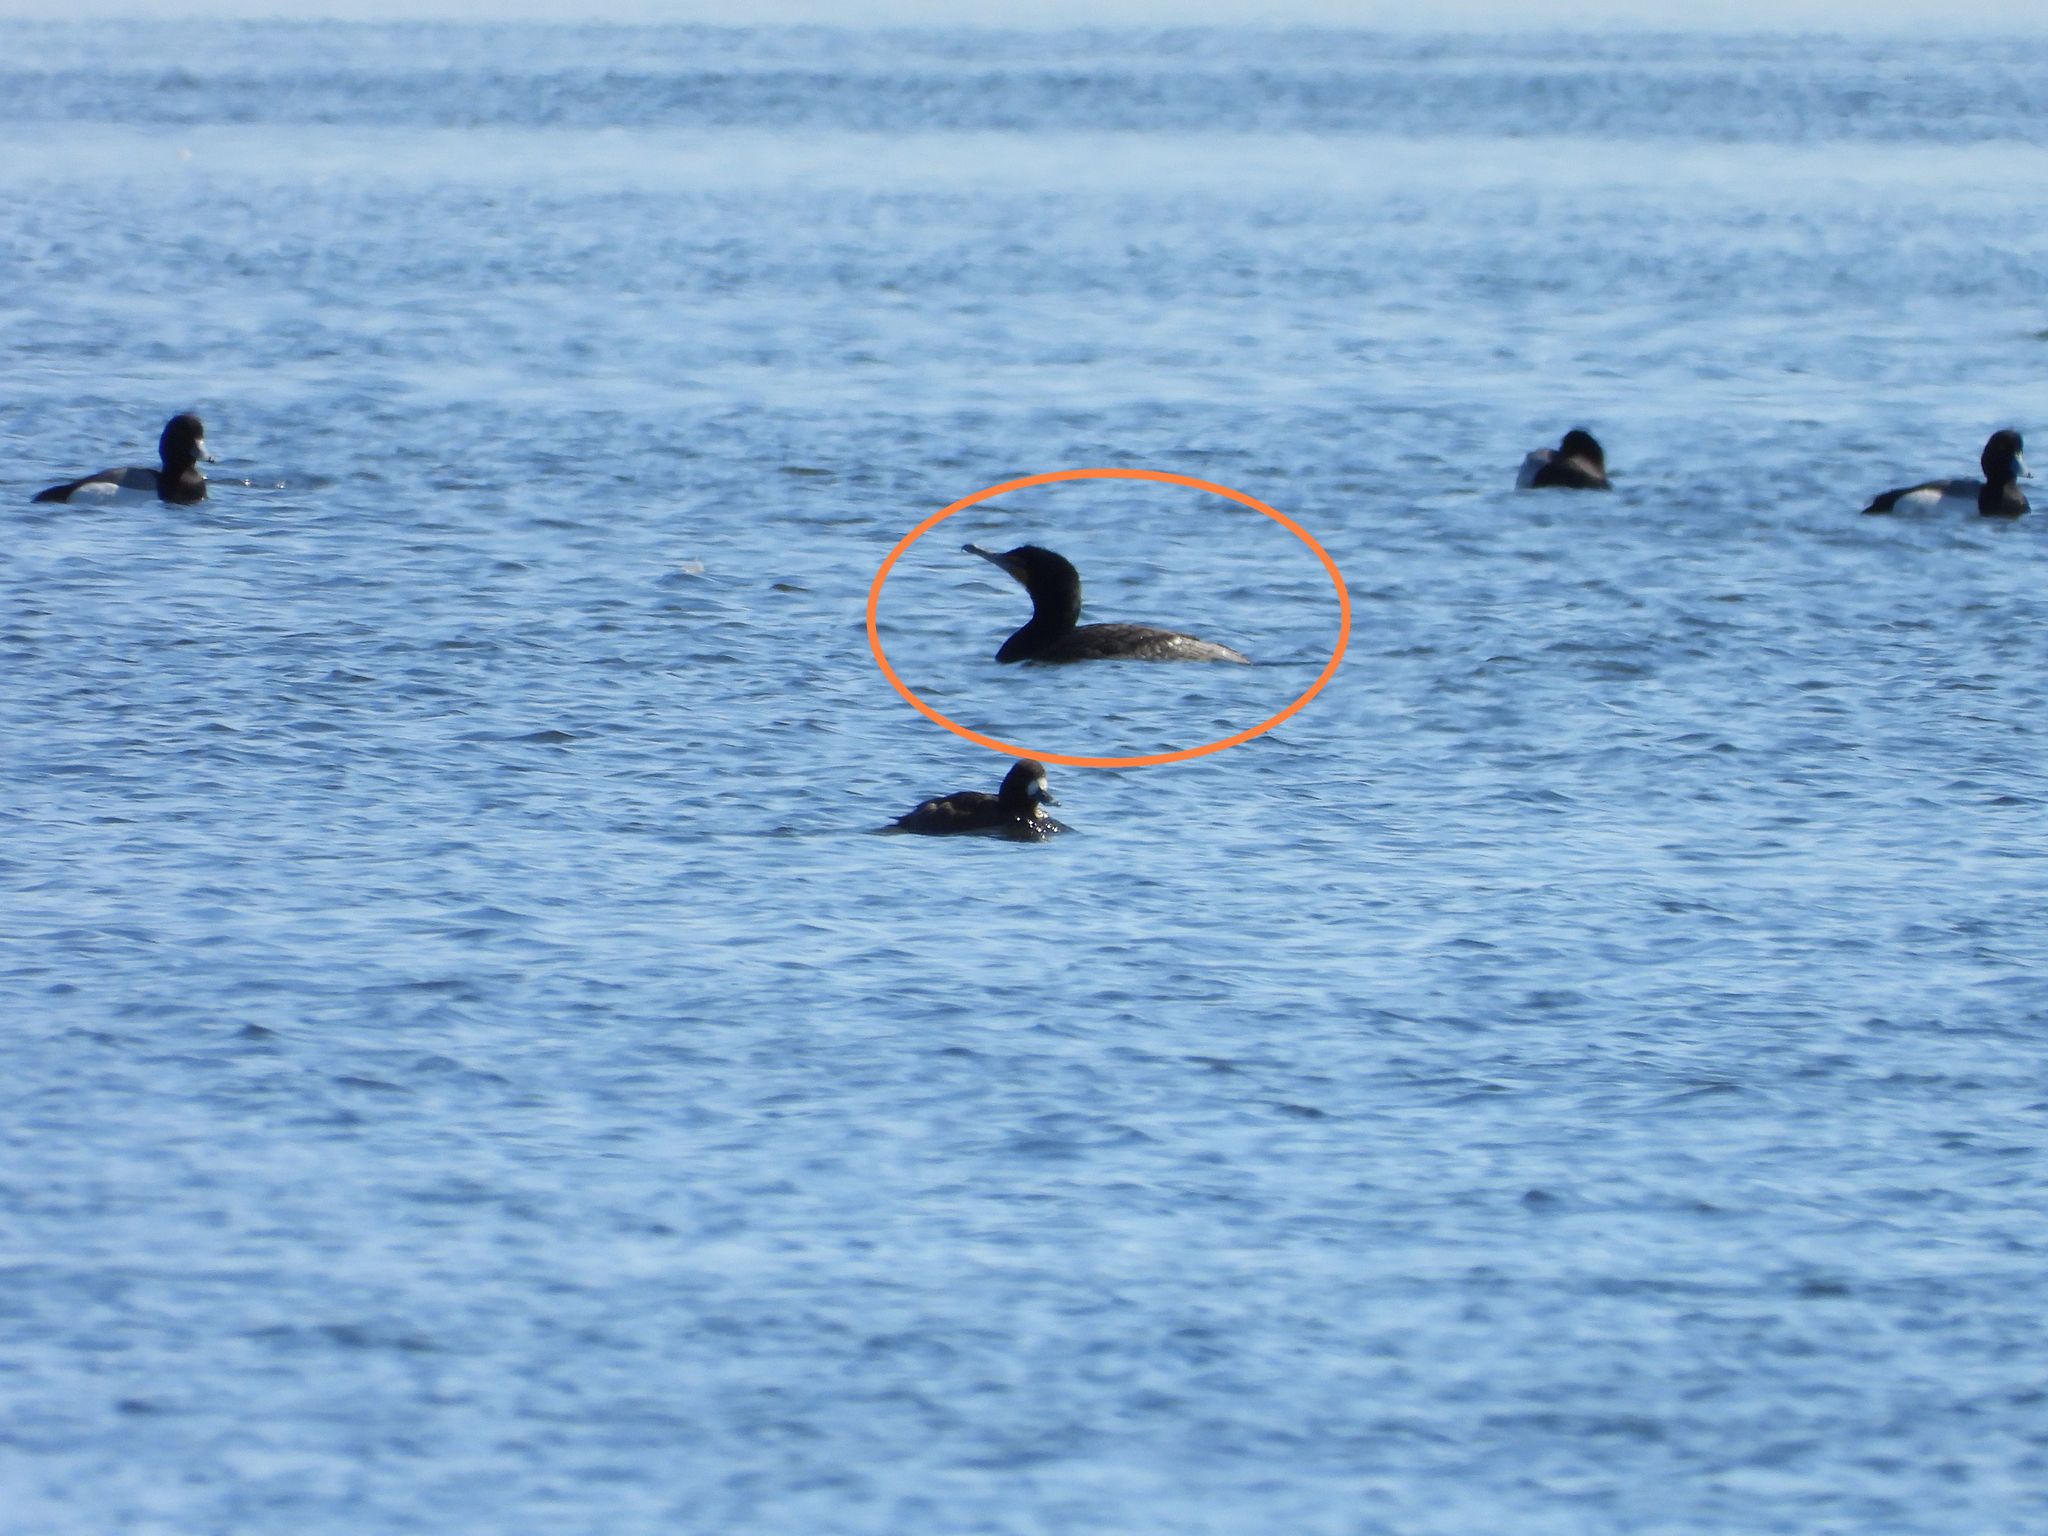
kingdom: Animalia
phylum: Chordata
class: Aves
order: Suliformes
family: Phalacrocoracidae
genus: Phalacrocorax
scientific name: Phalacrocorax auritus
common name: Double-crested cormorant
